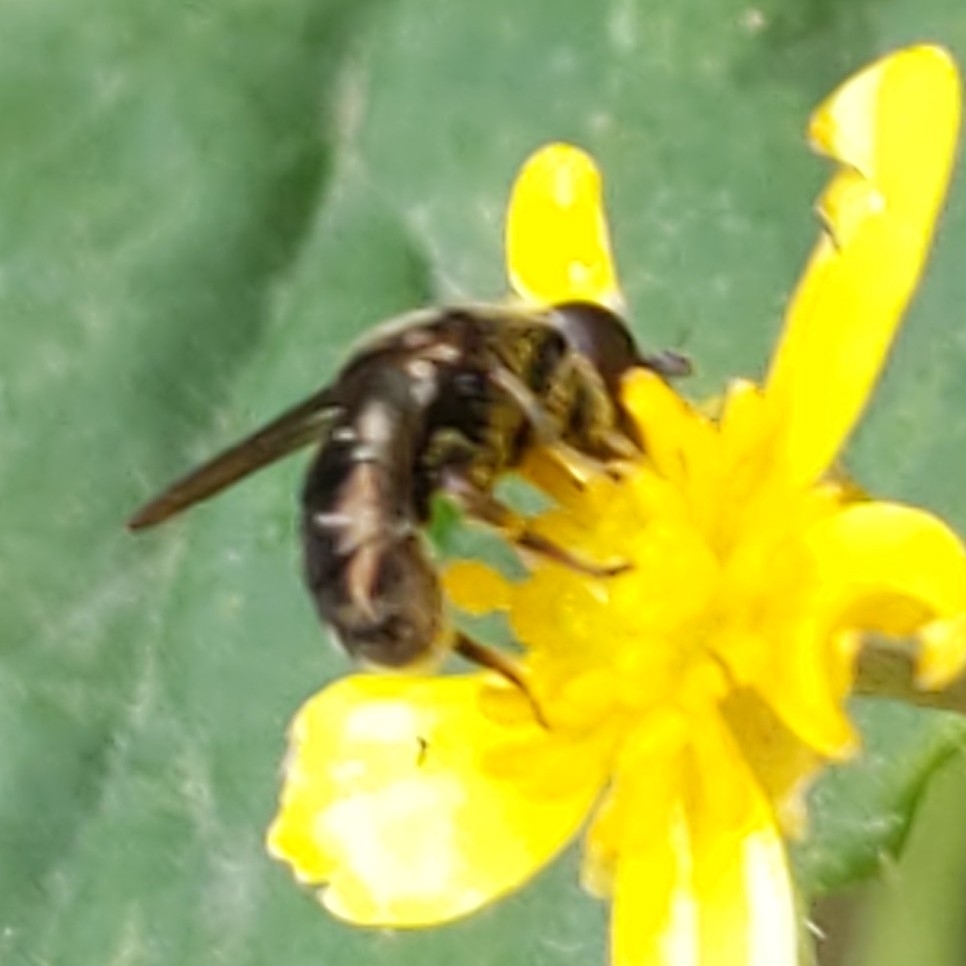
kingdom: Animalia
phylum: Arthropoda
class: Insecta
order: Diptera
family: Syrphidae
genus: Eumerus
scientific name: Eumerus
